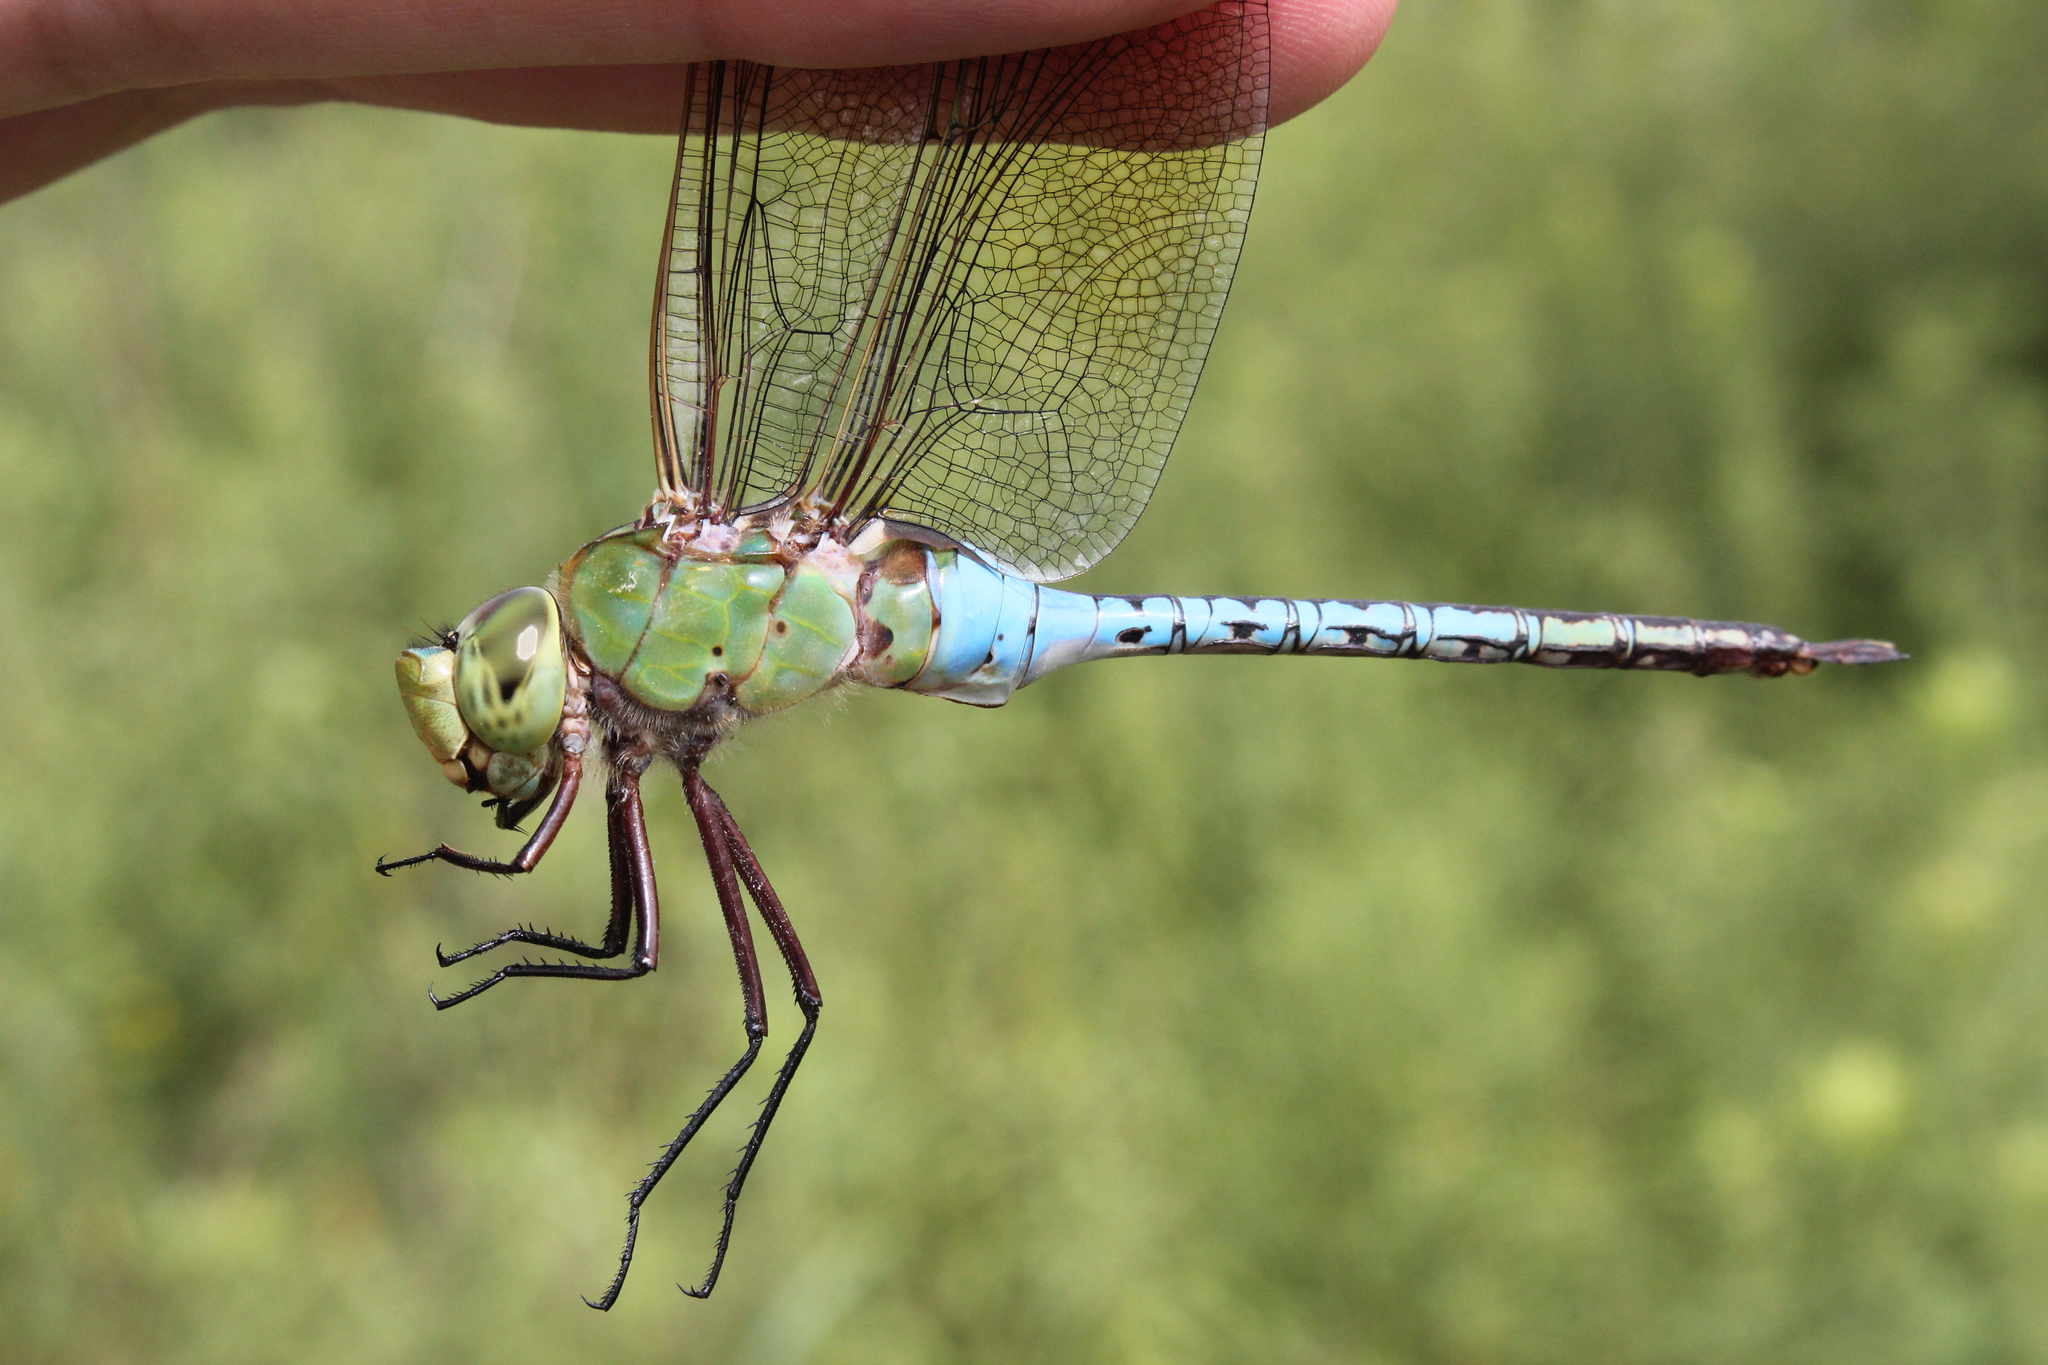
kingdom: Animalia
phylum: Arthropoda
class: Insecta
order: Odonata
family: Aeshnidae
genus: Anax
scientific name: Anax junius
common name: Common green darner
